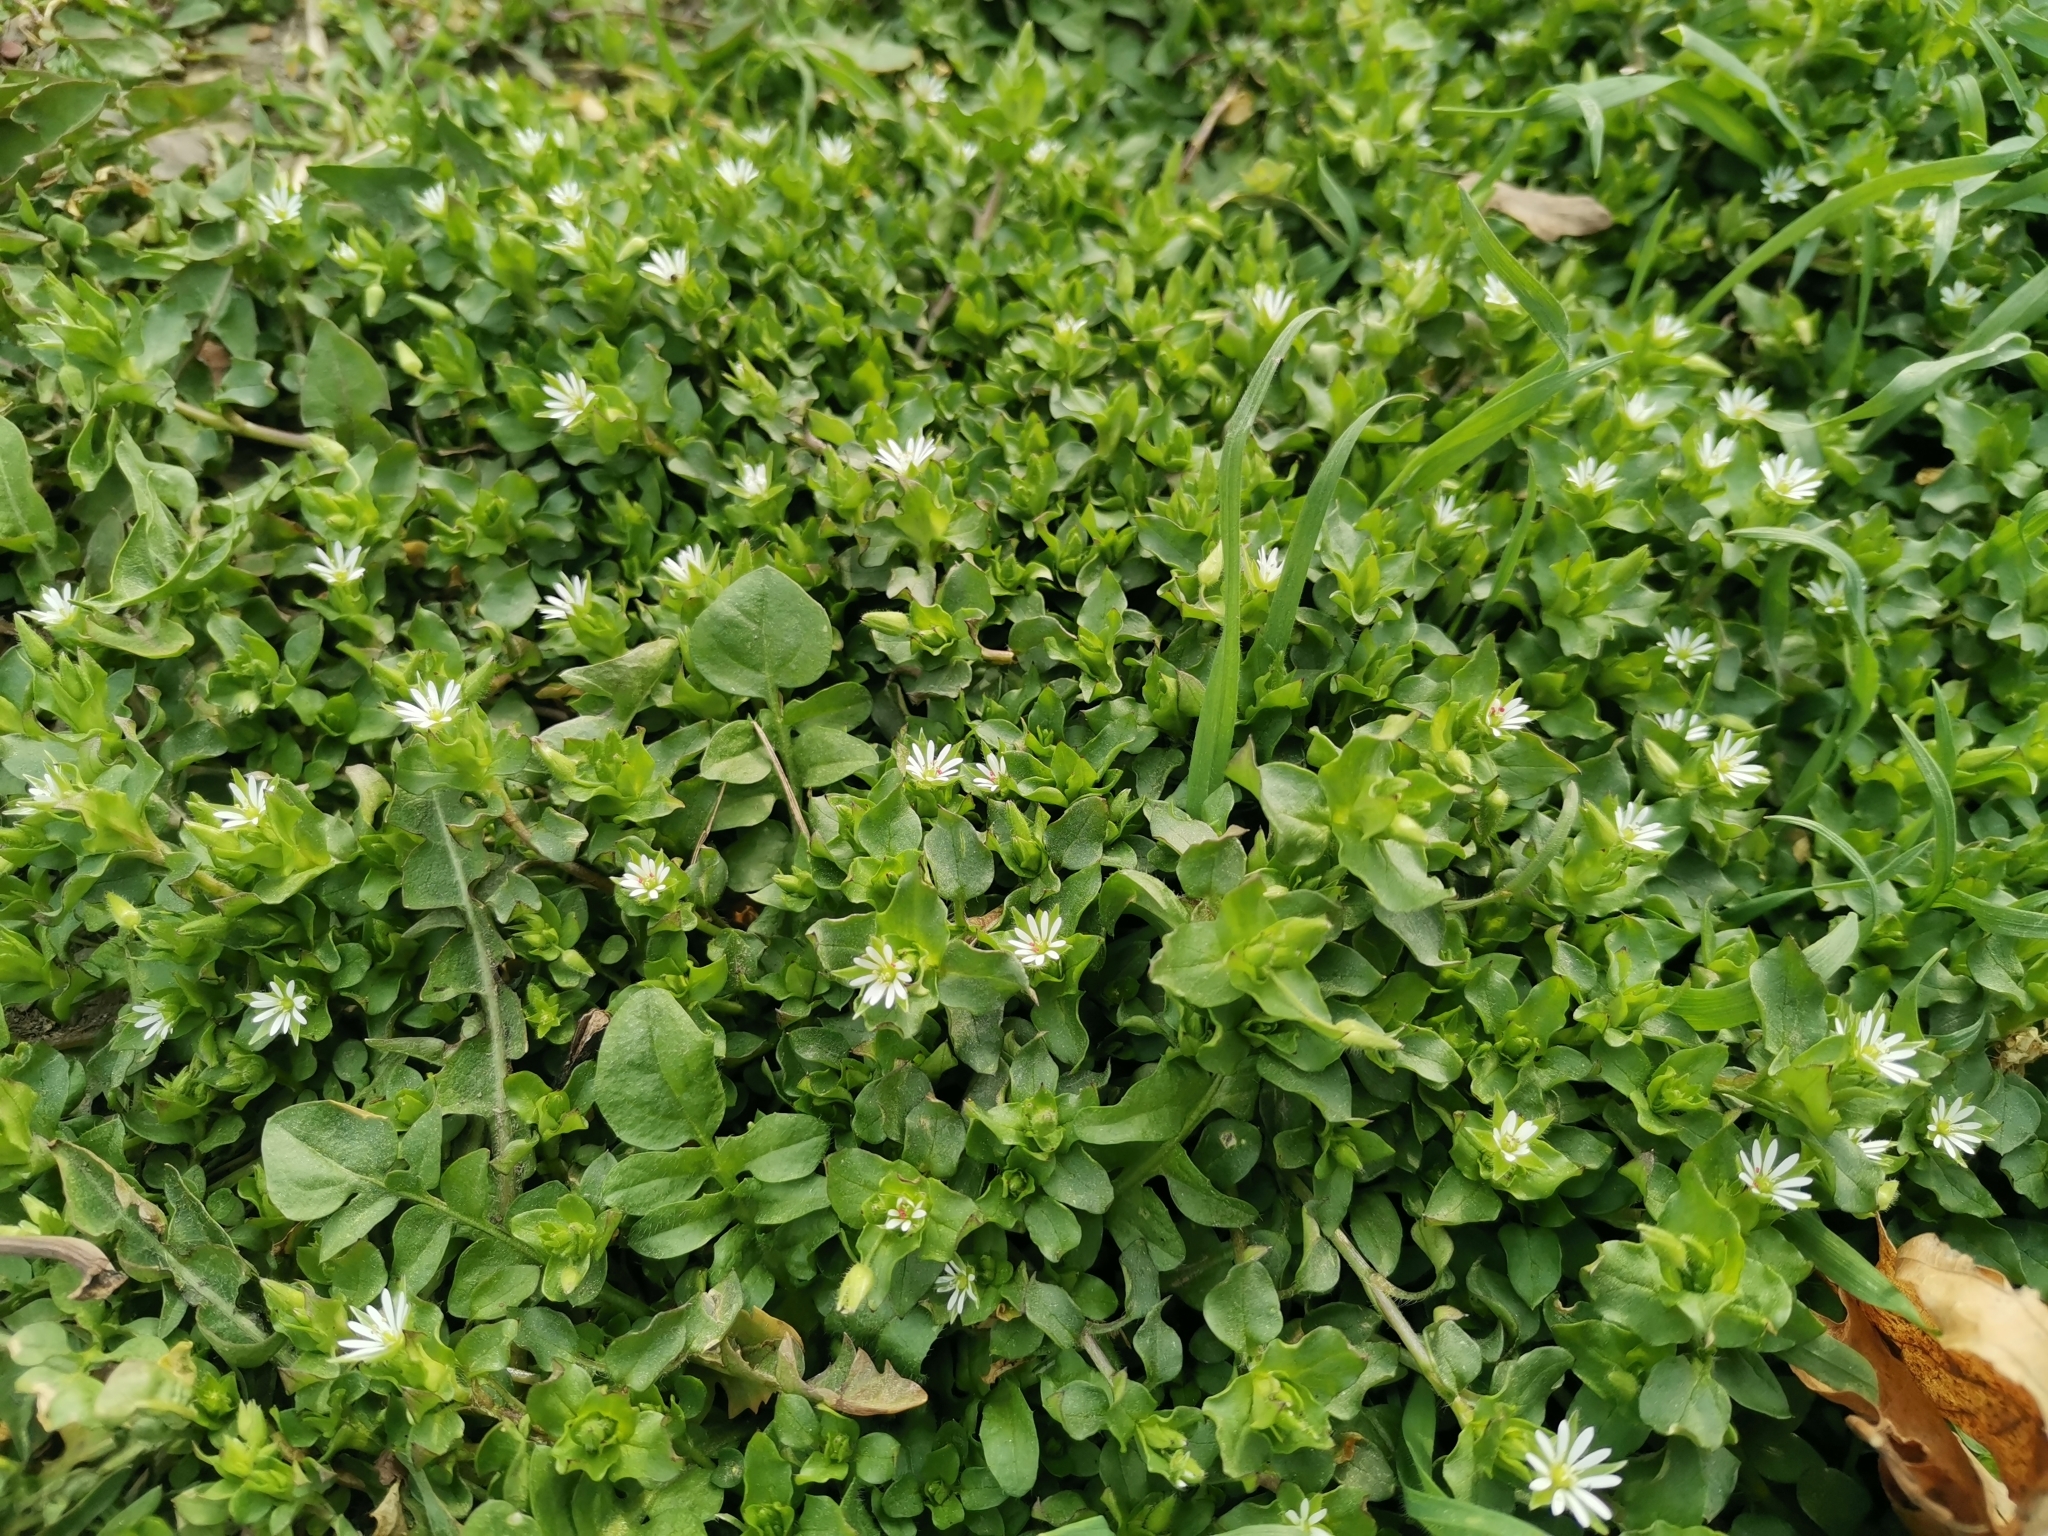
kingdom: Plantae
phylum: Tracheophyta
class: Magnoliopsida
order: Caryophyllales
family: Caryophyllaceae
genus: Stellaria
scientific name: Stellaria media
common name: Common chickweed
